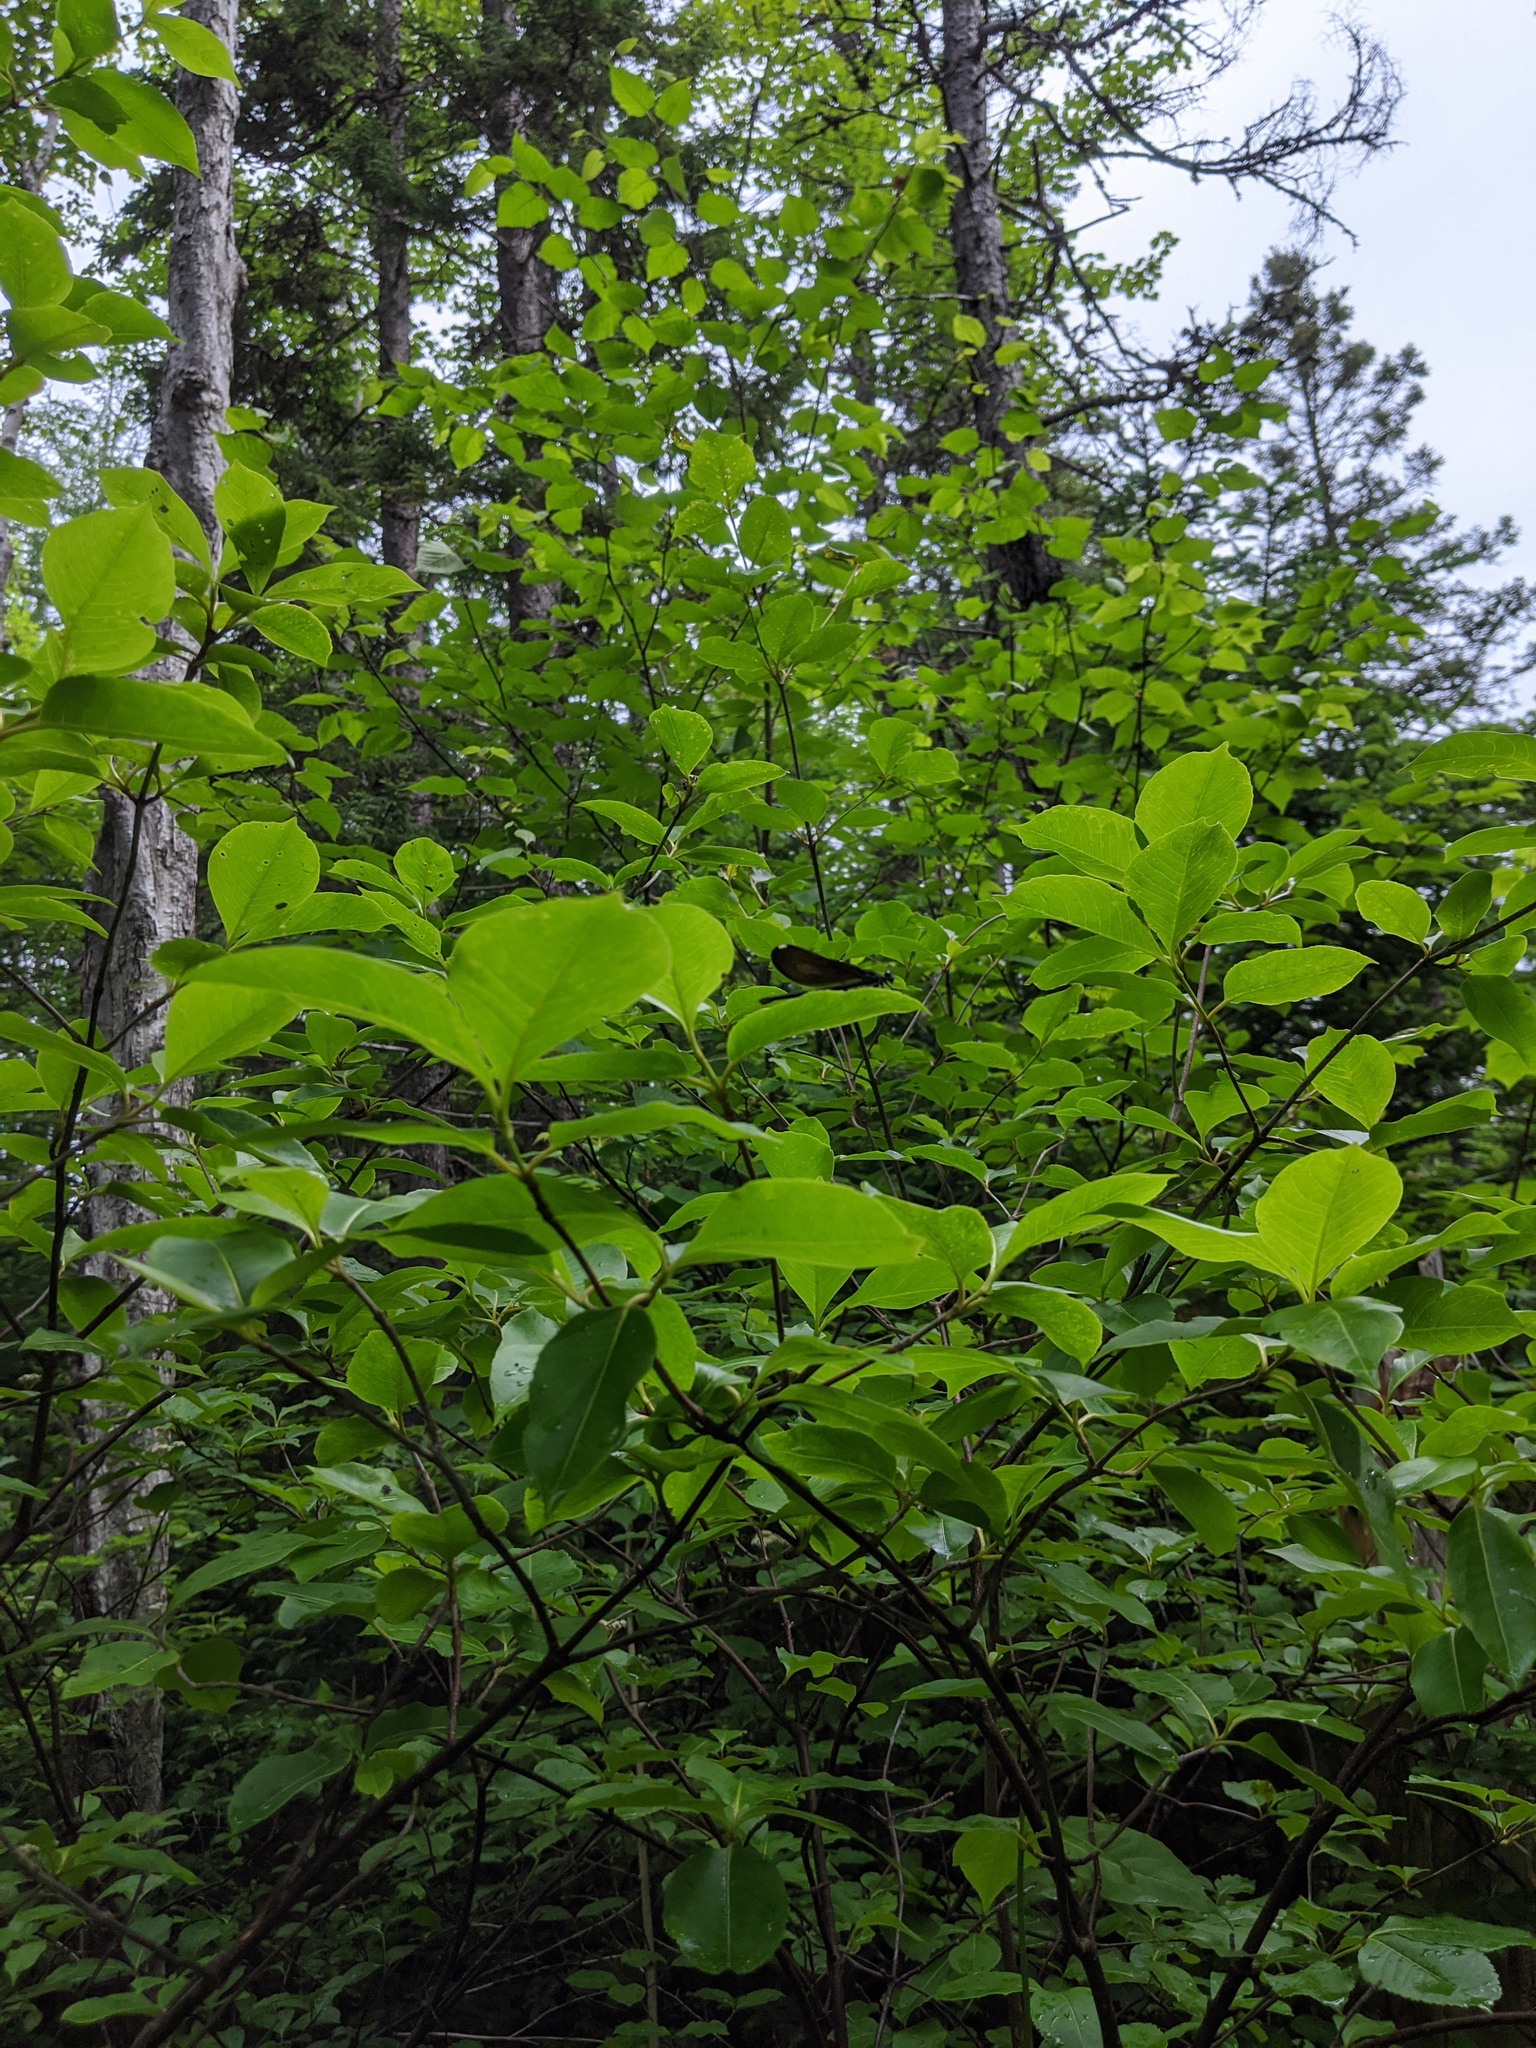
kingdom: Plantae
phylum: Tracheophyta
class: Magnoliopsida
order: Dipsacales
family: Viburnaceae
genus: Viburnum
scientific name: Viburnum cassinoides
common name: Swamp haw
